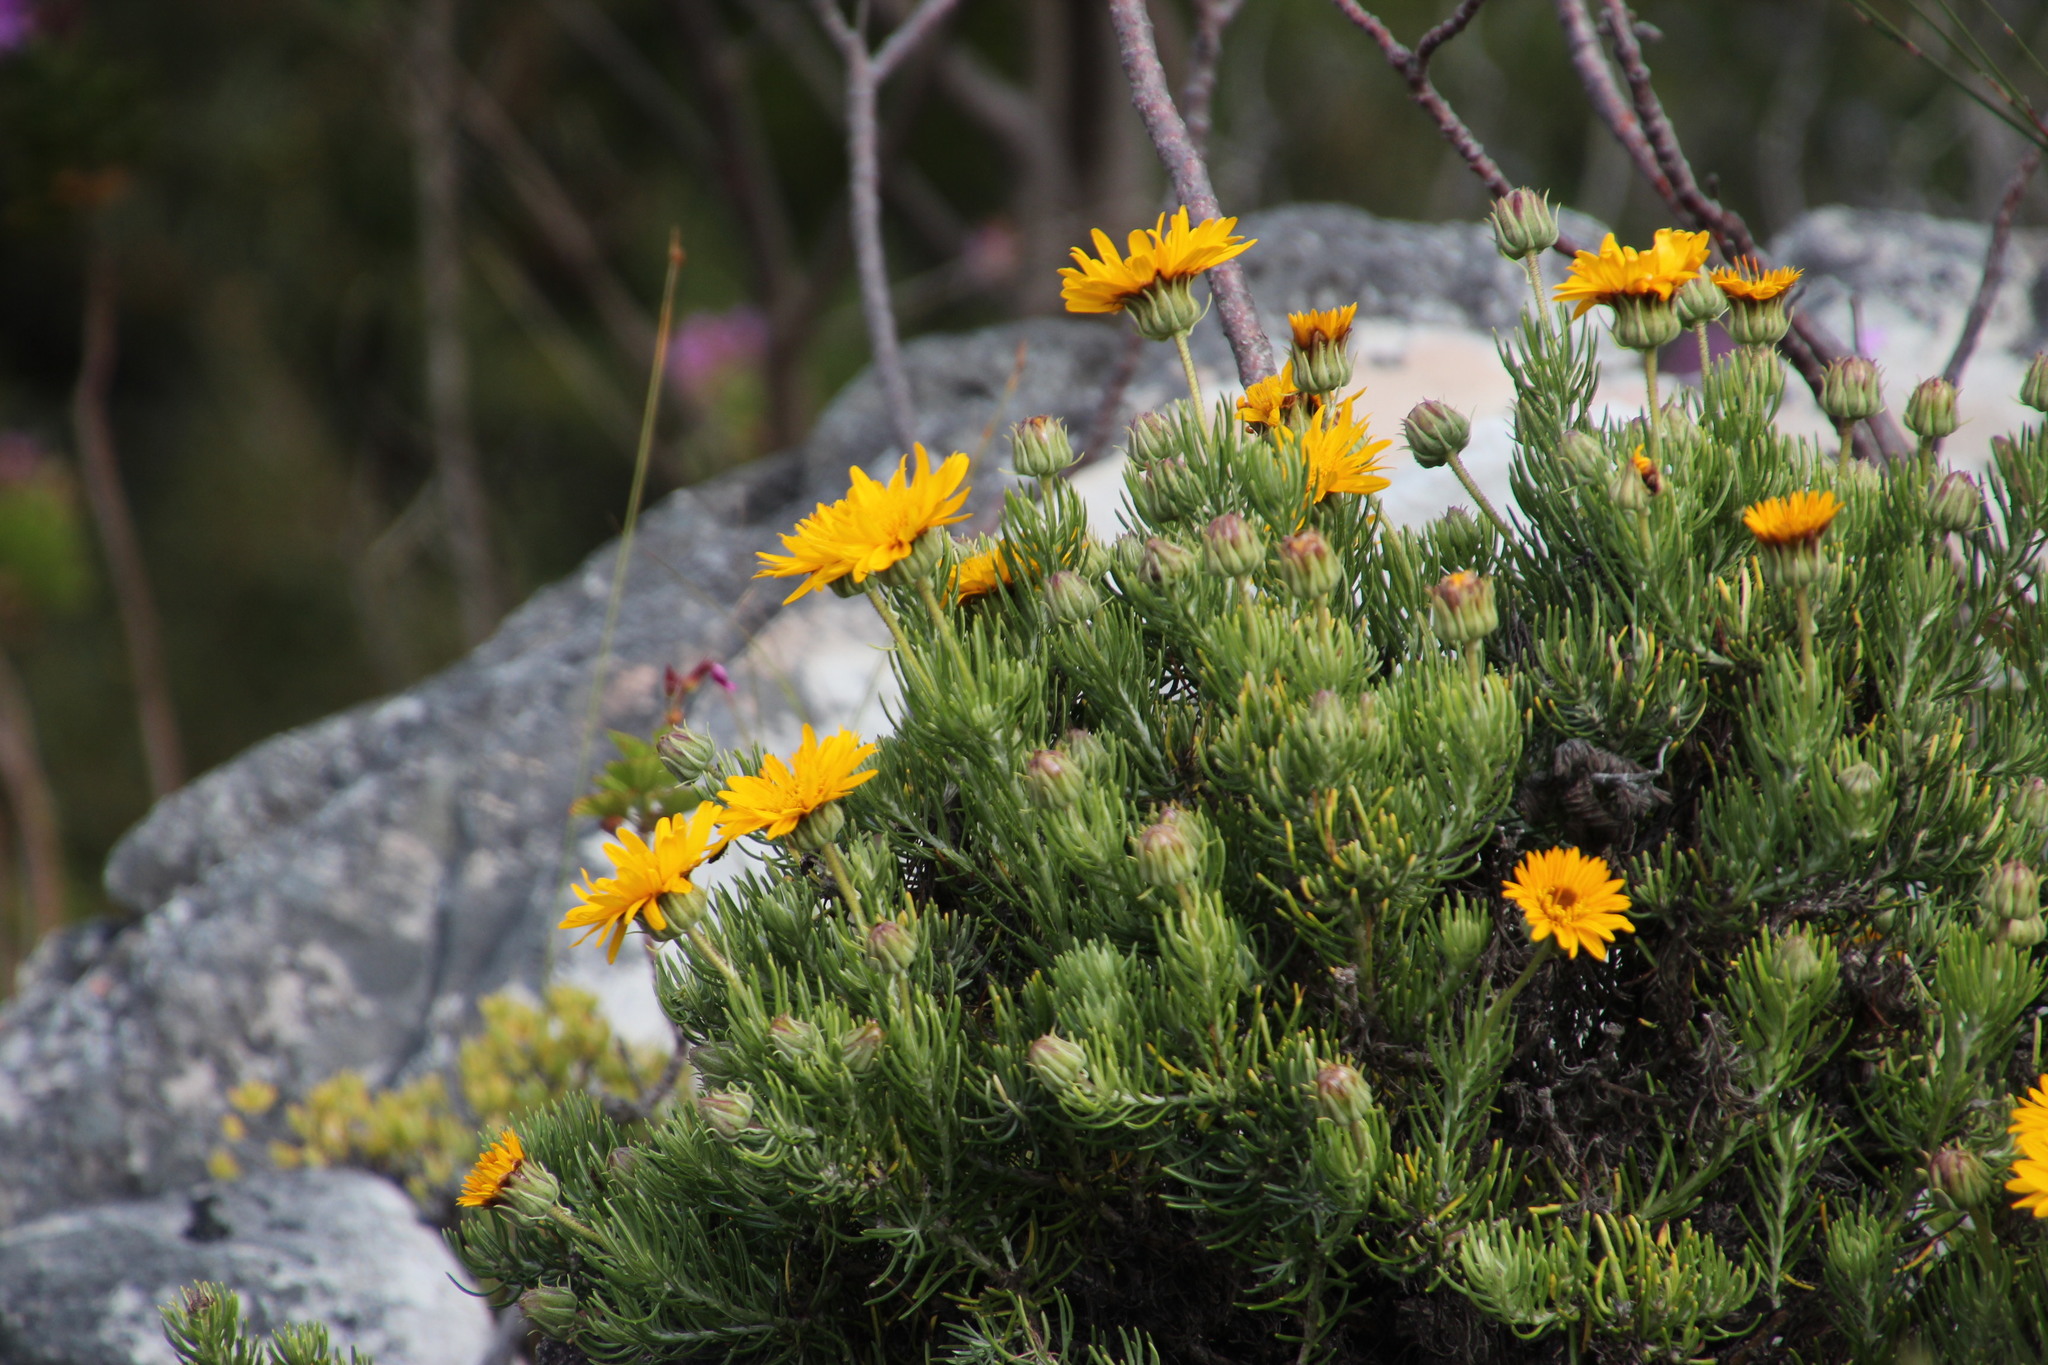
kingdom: Plantae
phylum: Tracheophyta
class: Magnoliopsida
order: Asterales
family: Asteraceae
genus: Heterolepis
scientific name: Heterolepis aliena
